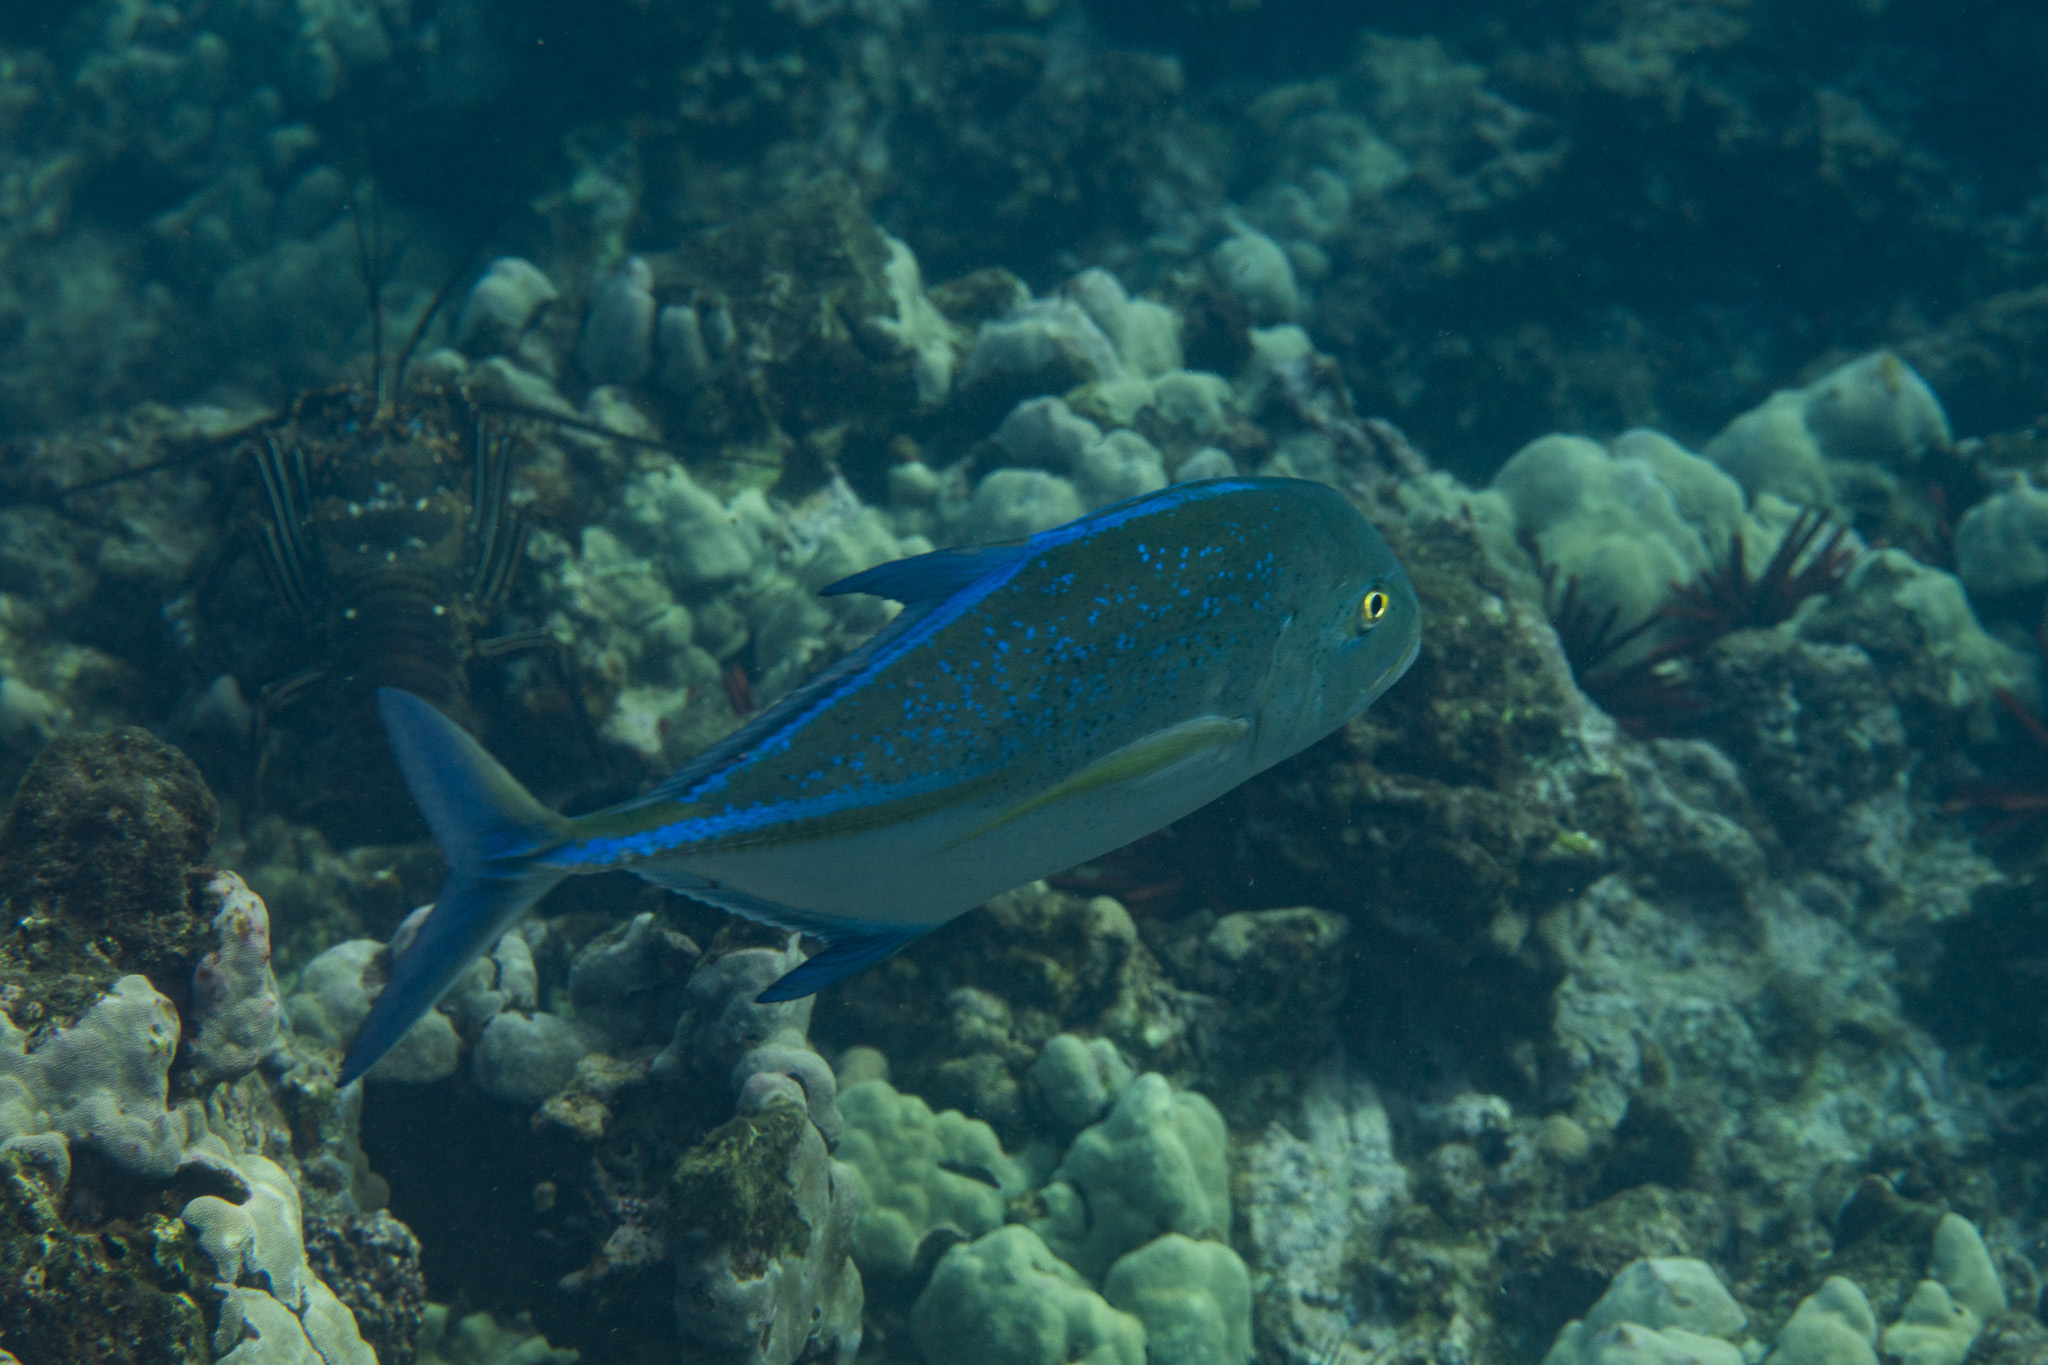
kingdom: Animalia
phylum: Chordata
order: Perciformes
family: Carangidae
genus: Caranx
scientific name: Caranx melampygus
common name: Bluefin trevally
